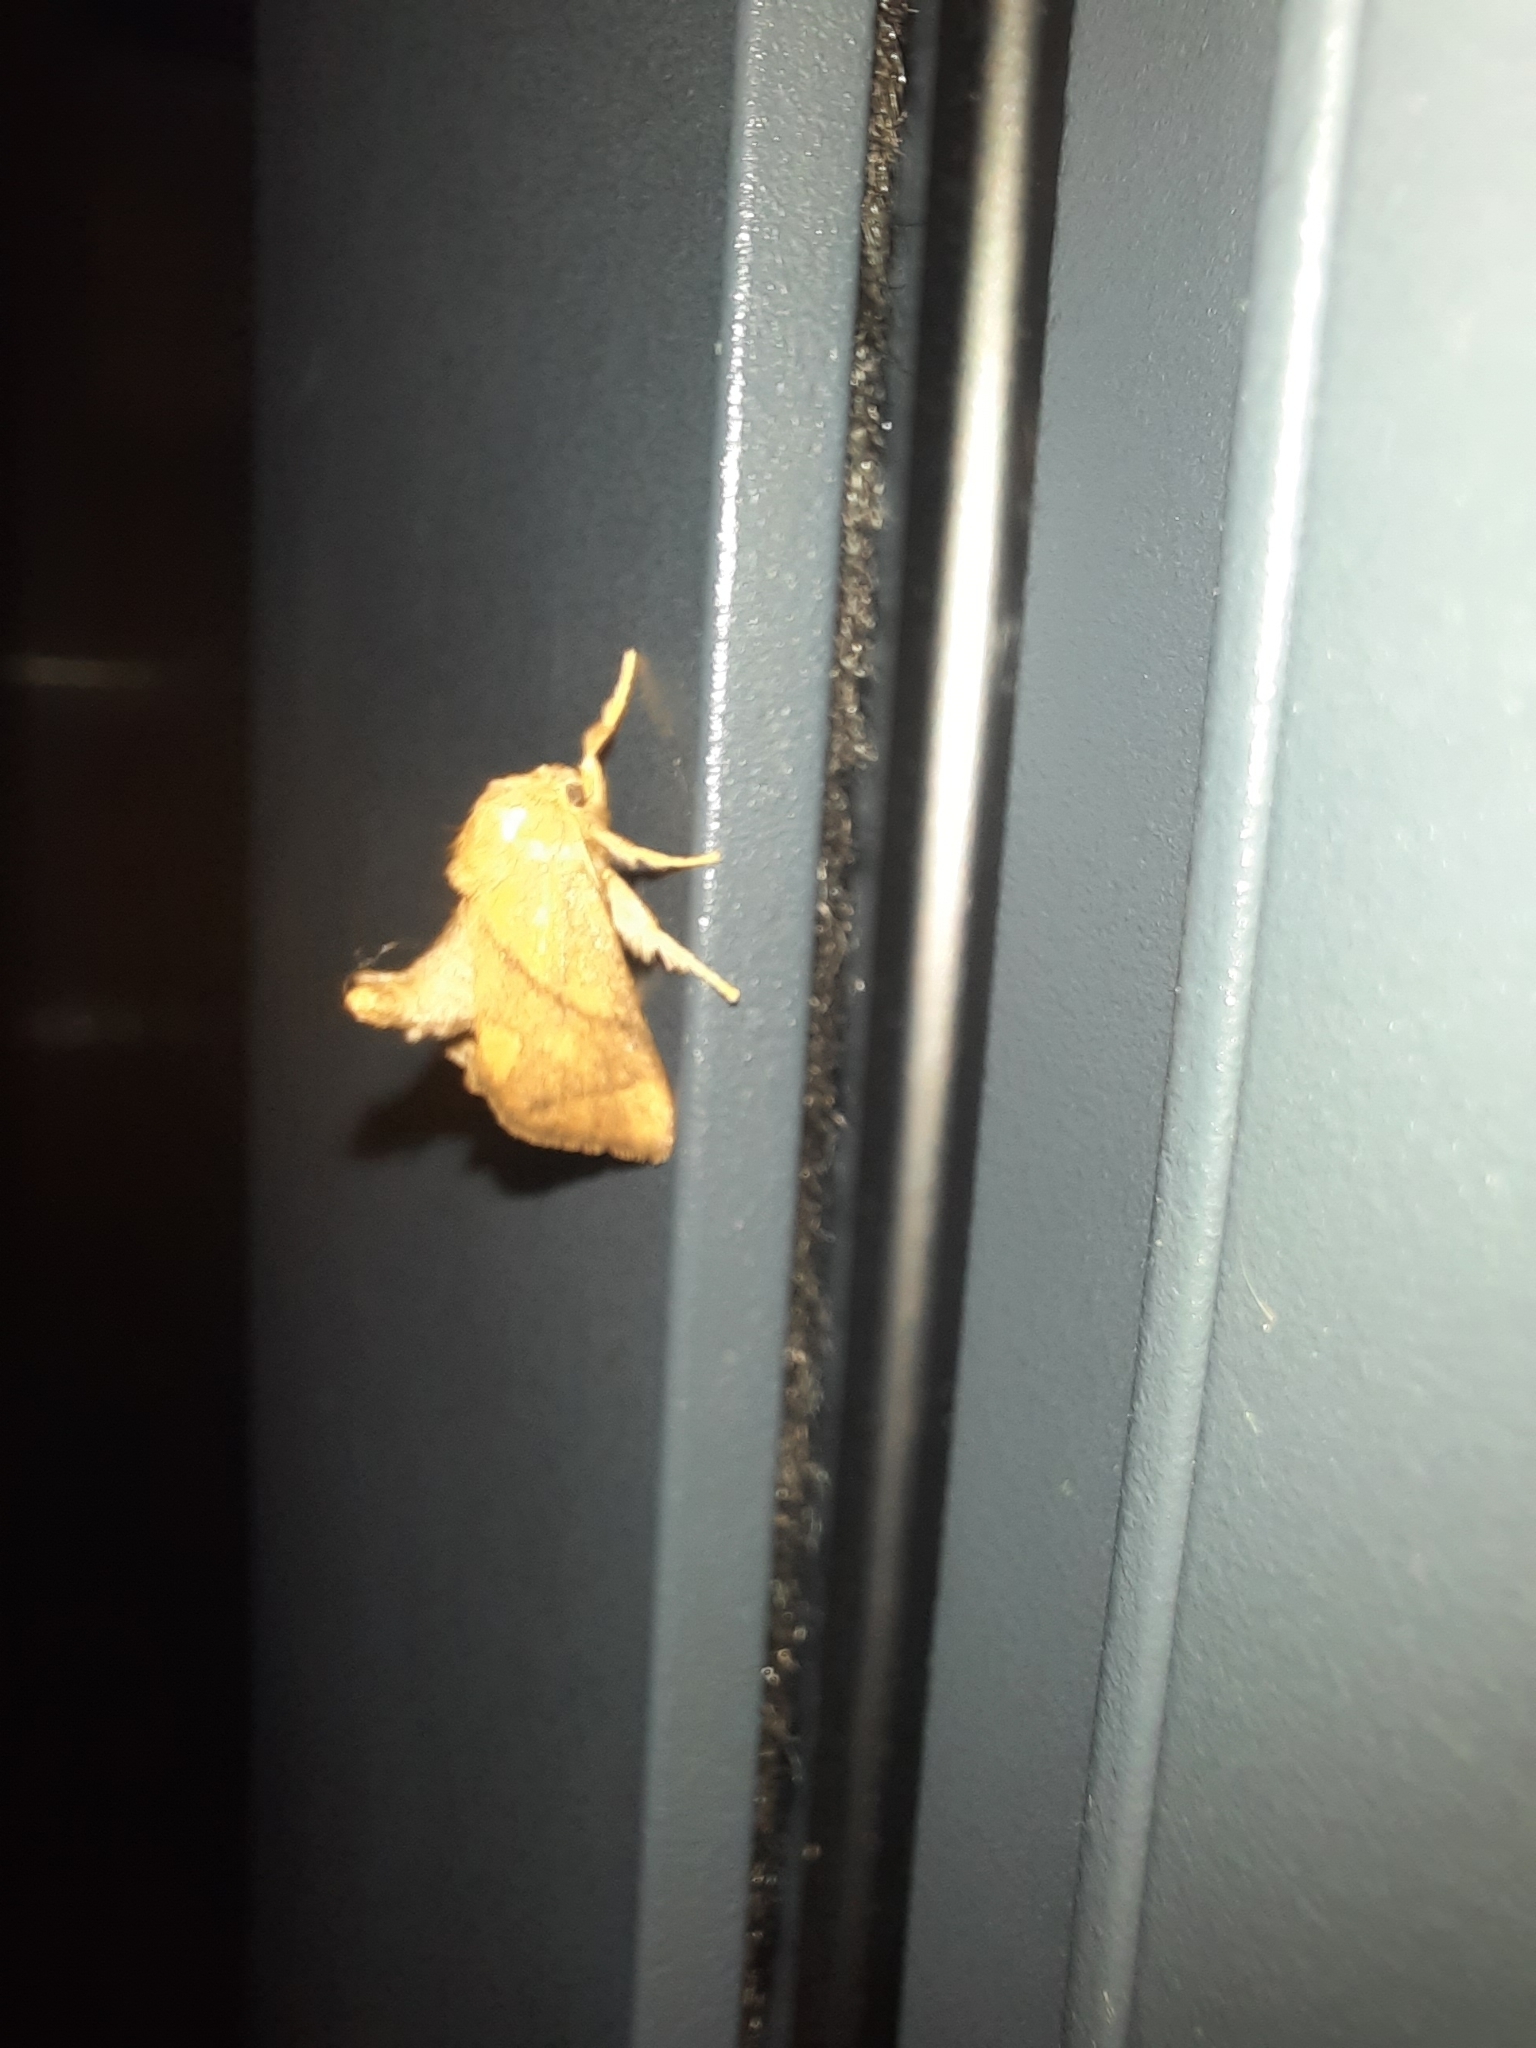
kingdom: Animalia
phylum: Arthropoda
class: Insecta
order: Lepidoptera
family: Limacodidae
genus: Apoda
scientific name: Apoda limacodes
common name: Festoon
